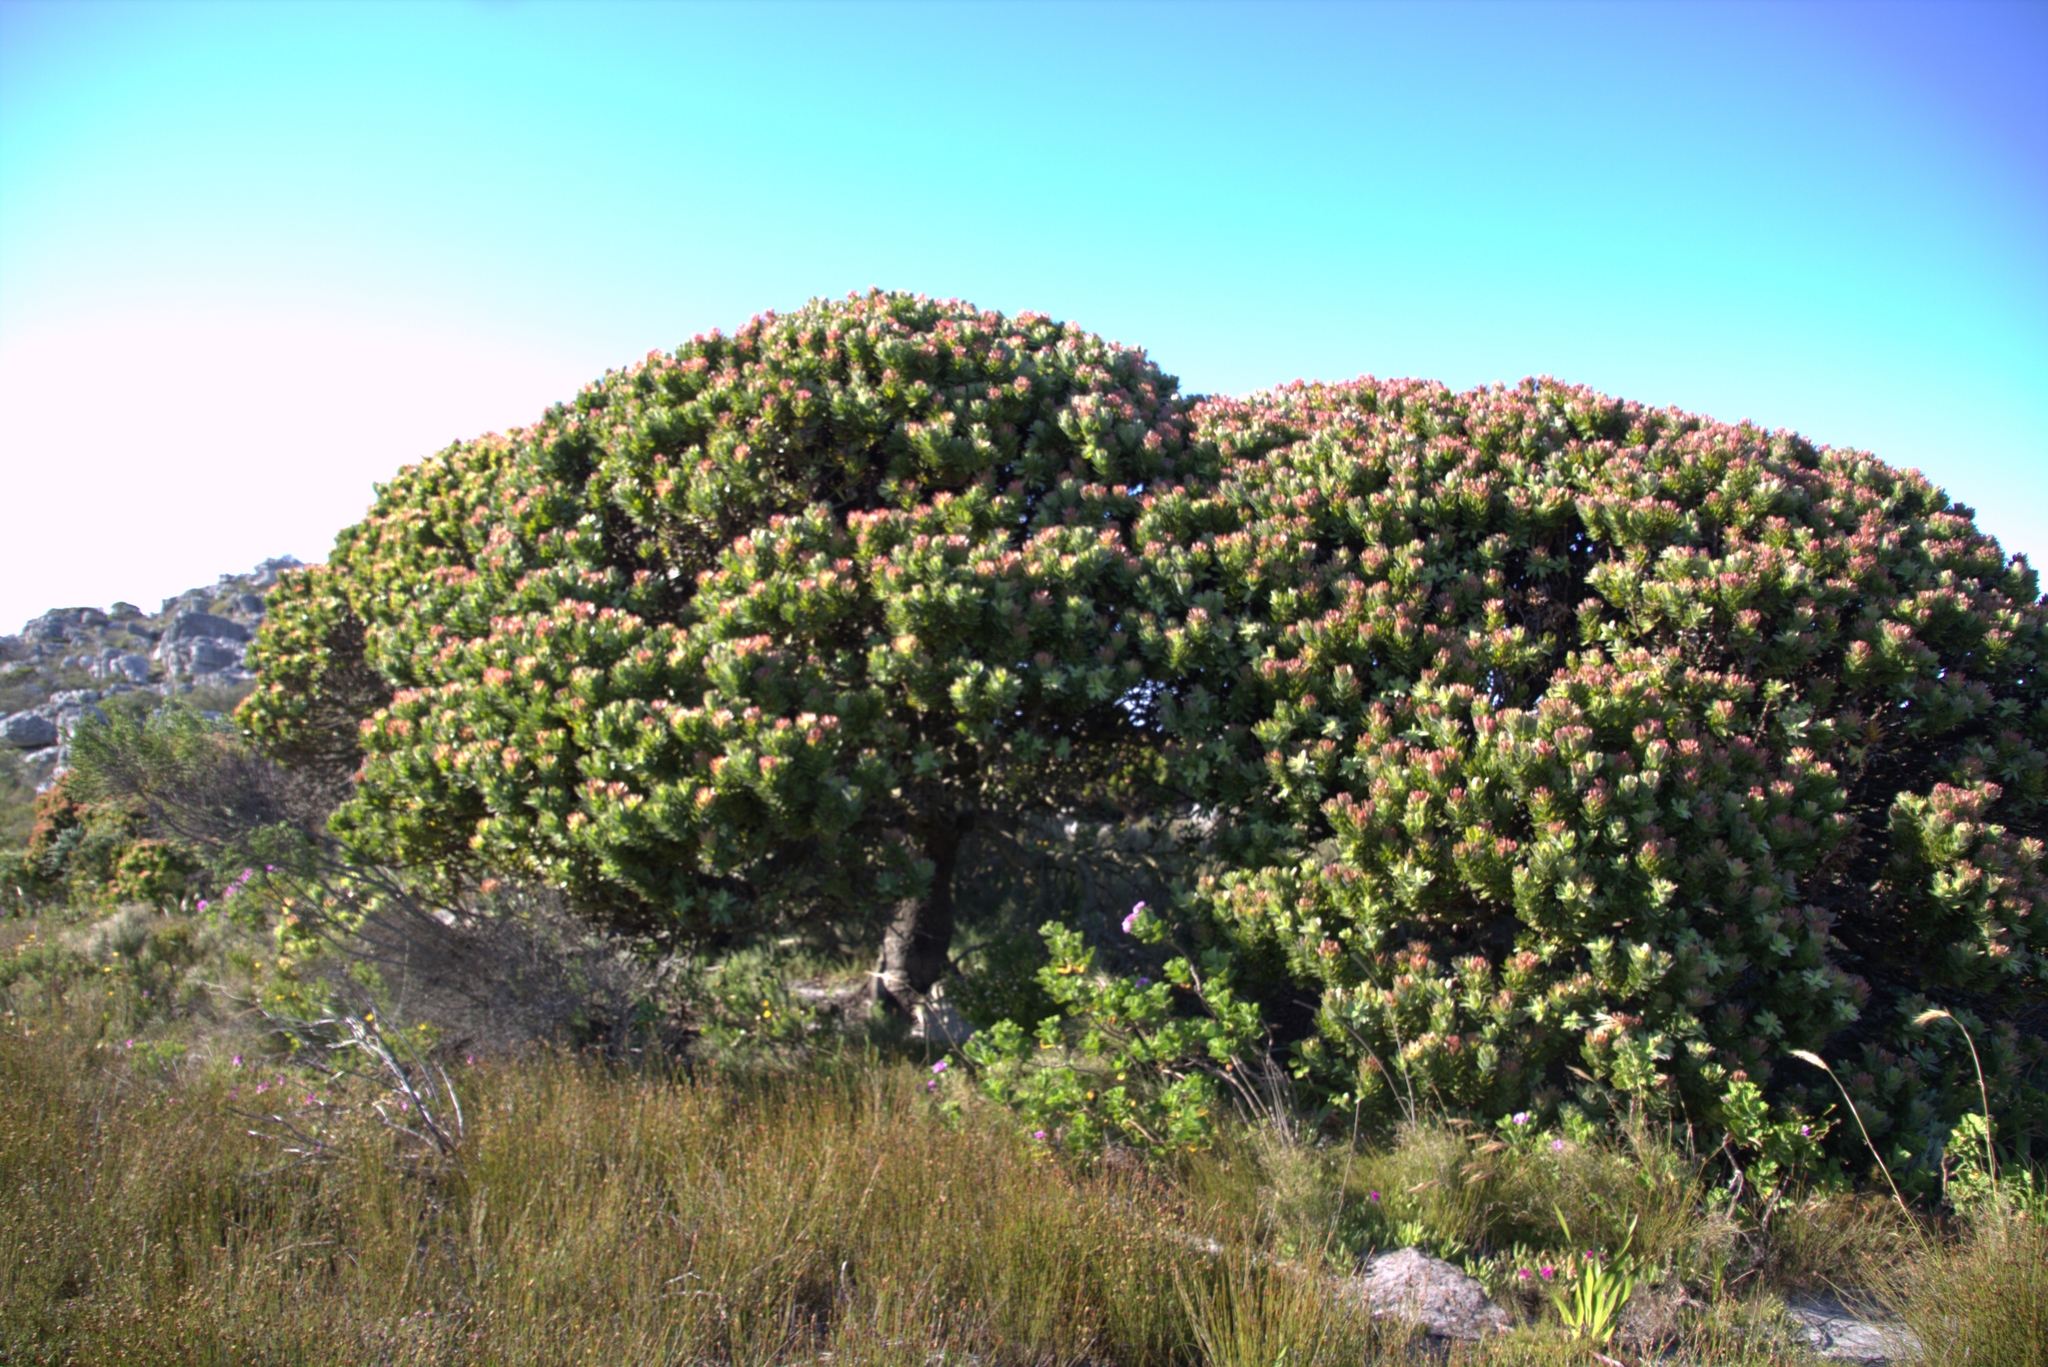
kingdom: Plantae
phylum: Tracheophyta
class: Magnoliopsida
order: Proteales
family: Proteaceae
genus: Mimetes
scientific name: Mimetes fimbriifolius
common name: Fringed bottlebrush
